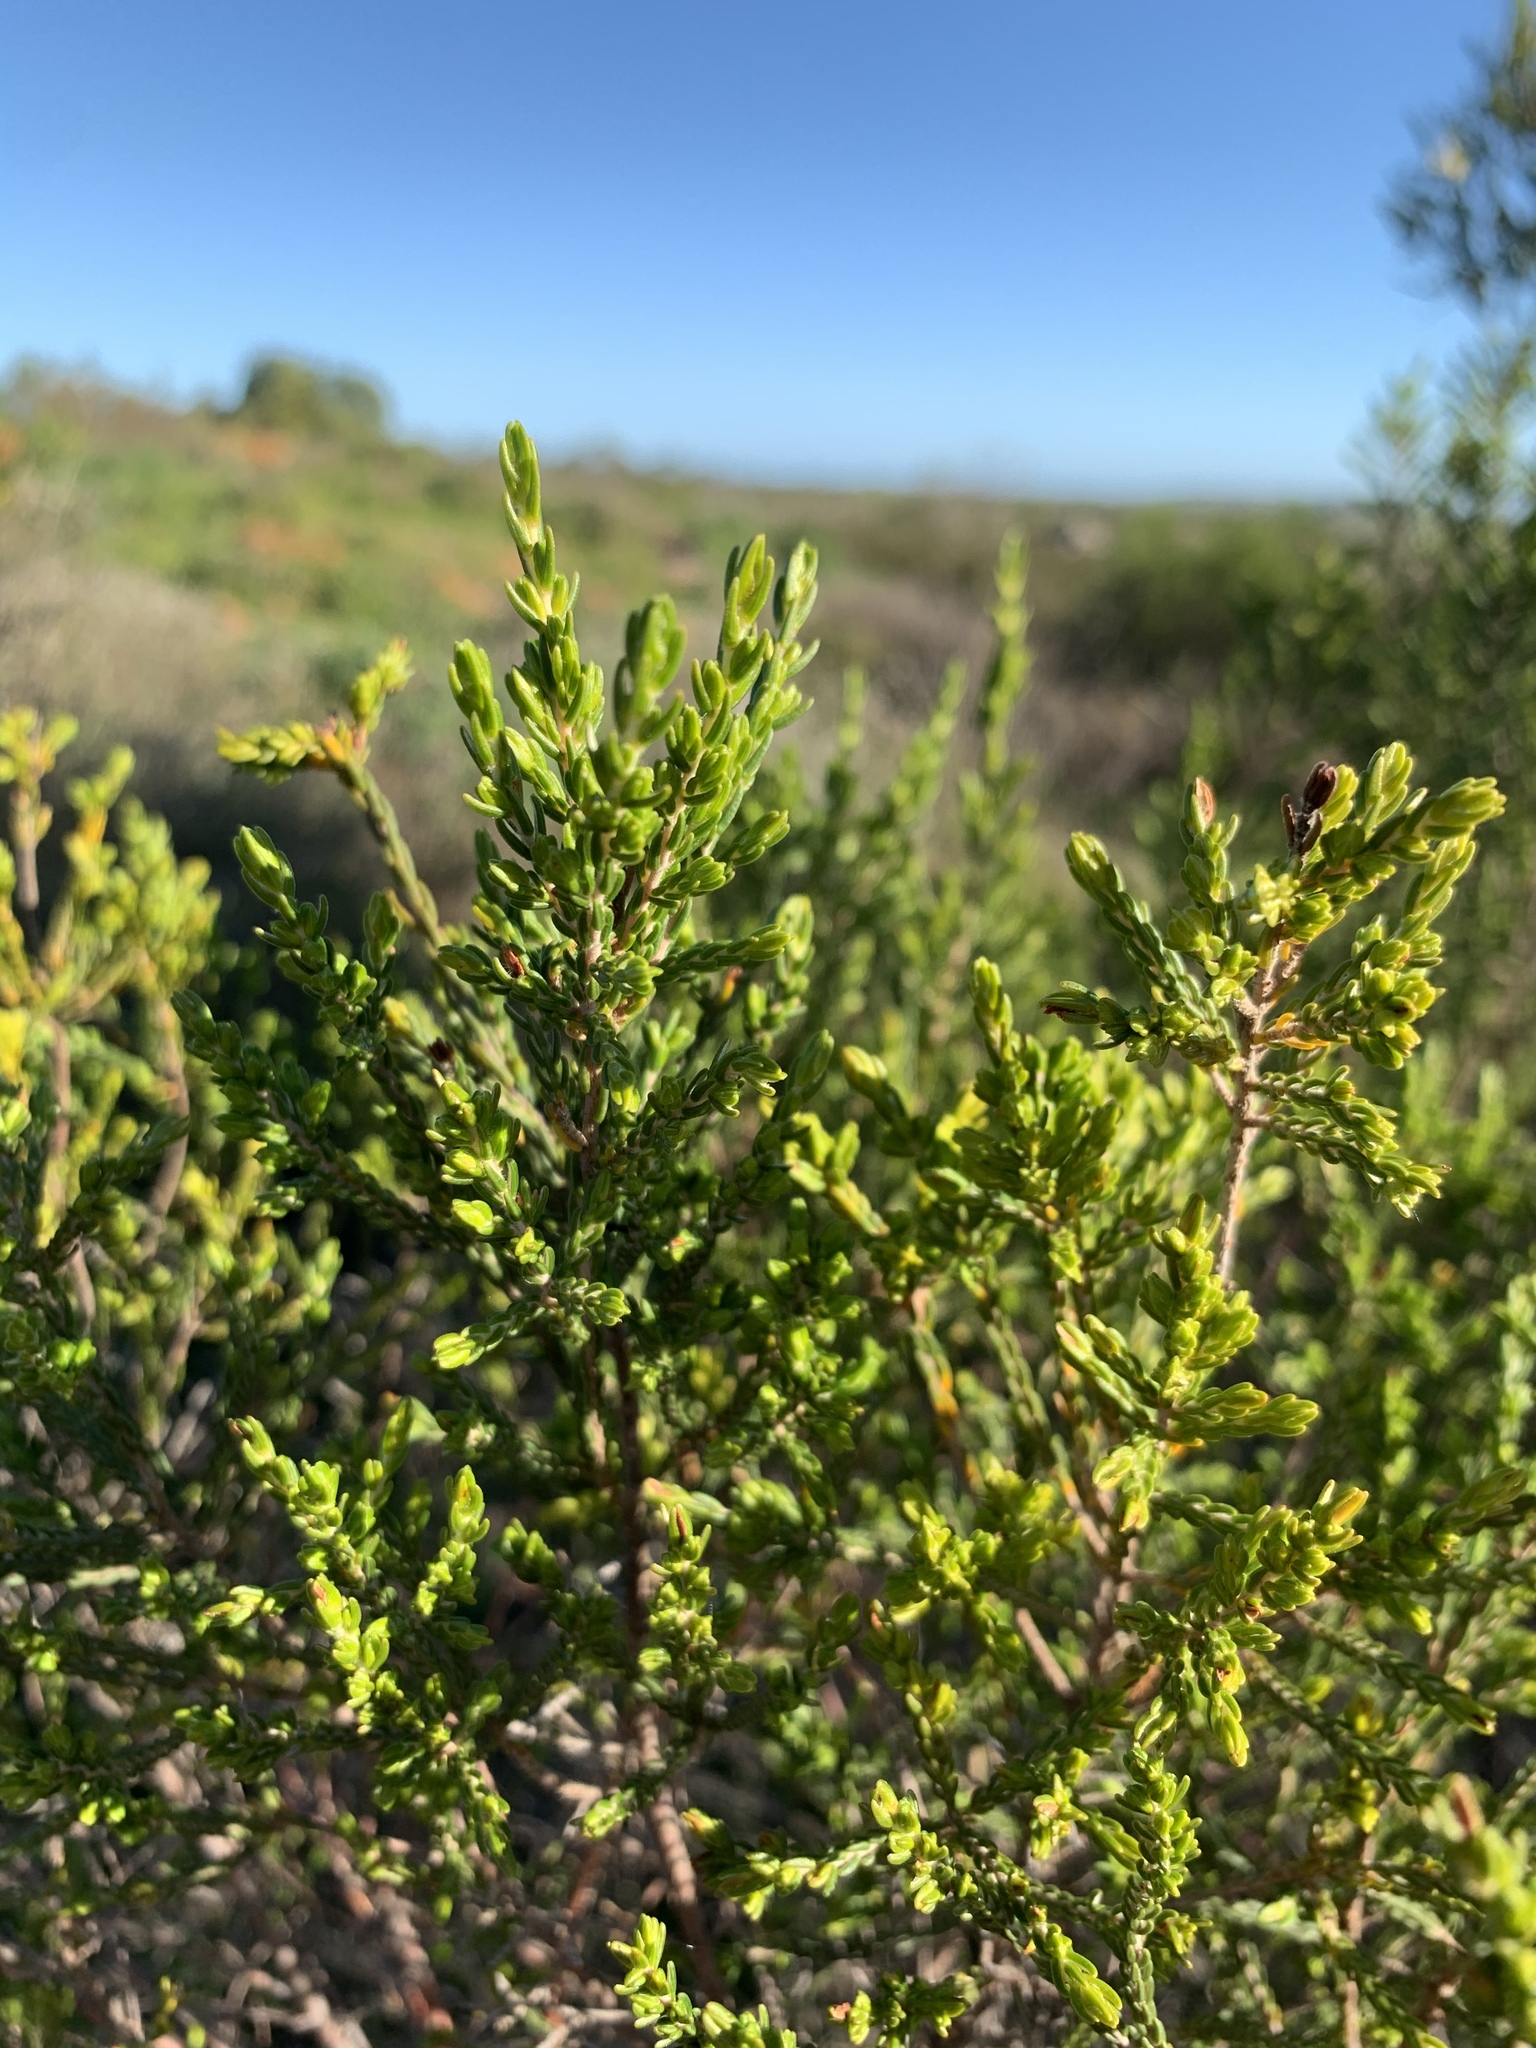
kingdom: Plantae
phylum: Tracheophyta
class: Magnoliopsida
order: Malvales
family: Thymelaeaceae
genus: Passerina
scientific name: Passerina corymbosa
